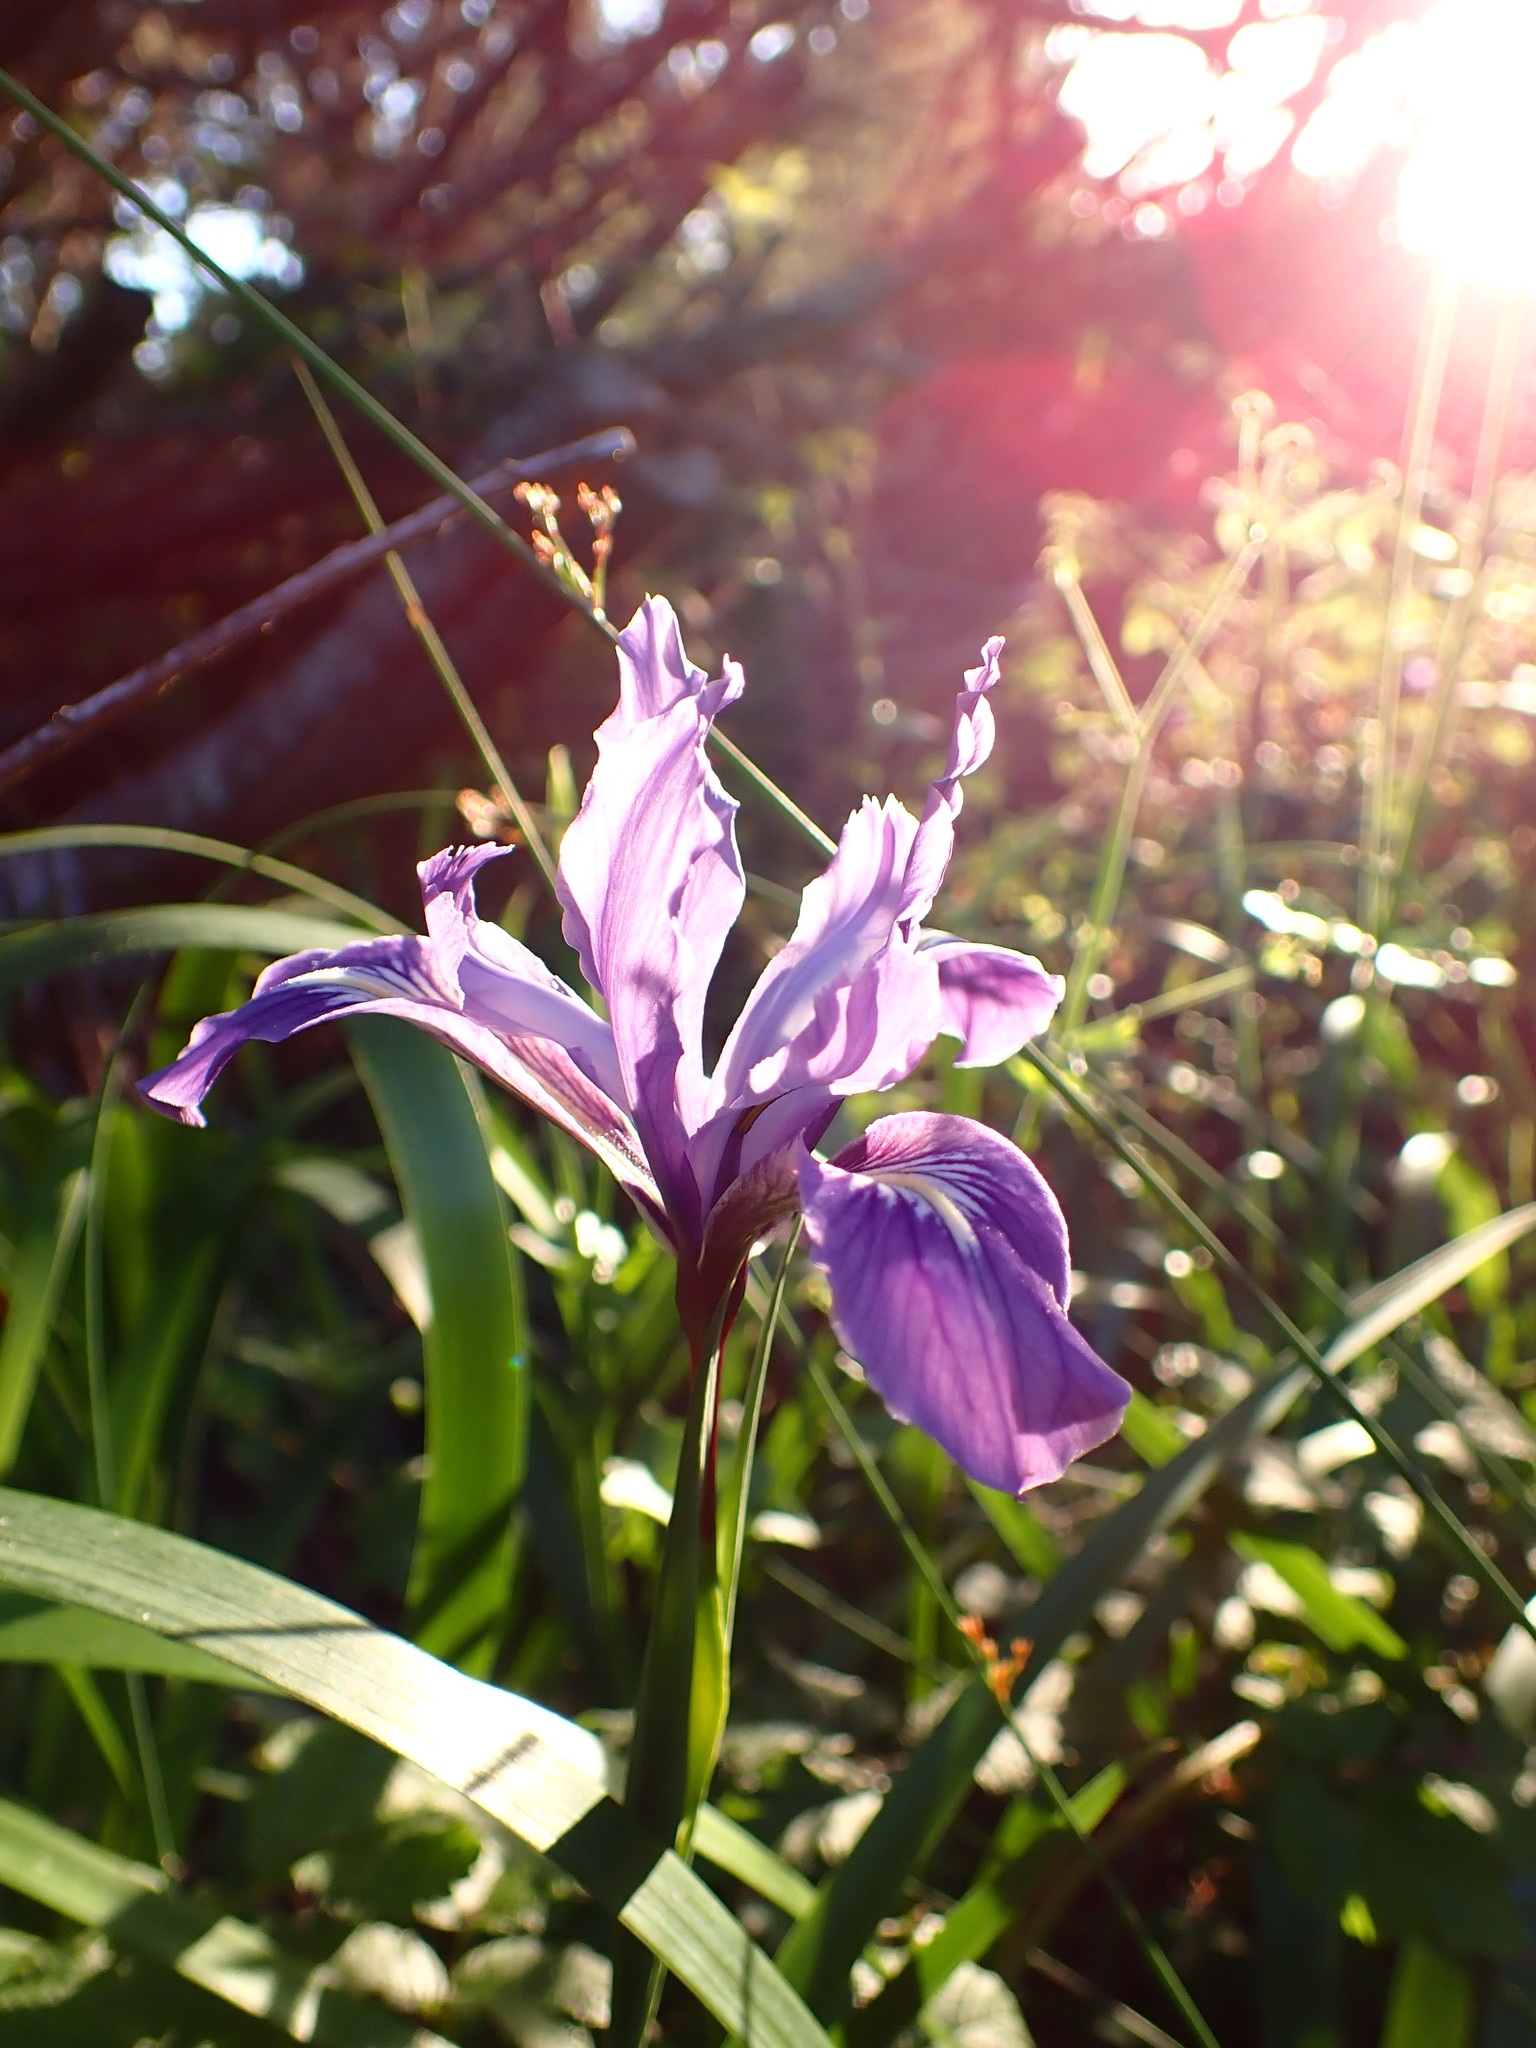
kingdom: Plantae
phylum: Tracheophyta
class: Liliopsida
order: Asparagales
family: Iridaceae
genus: Iris
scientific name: Iris douglasiana
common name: Marin iris
